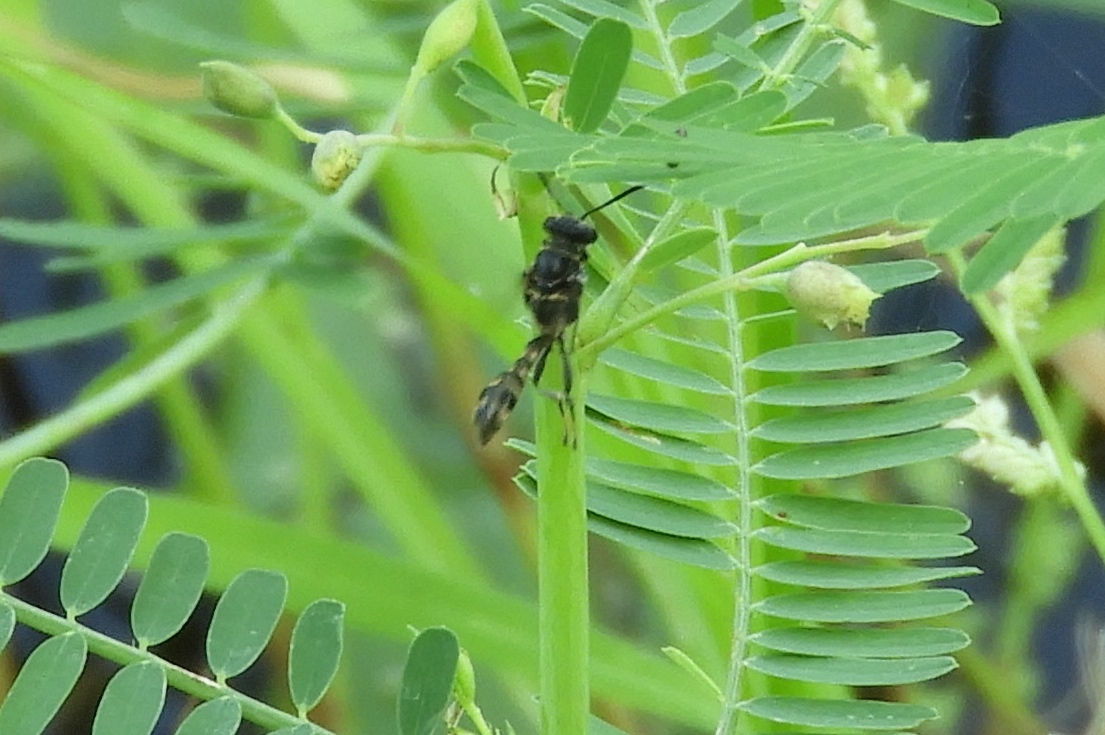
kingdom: Animalia
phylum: Arthropoda
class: Insecta
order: Hymenoptera
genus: Trypargilum
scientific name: Trypargilum
